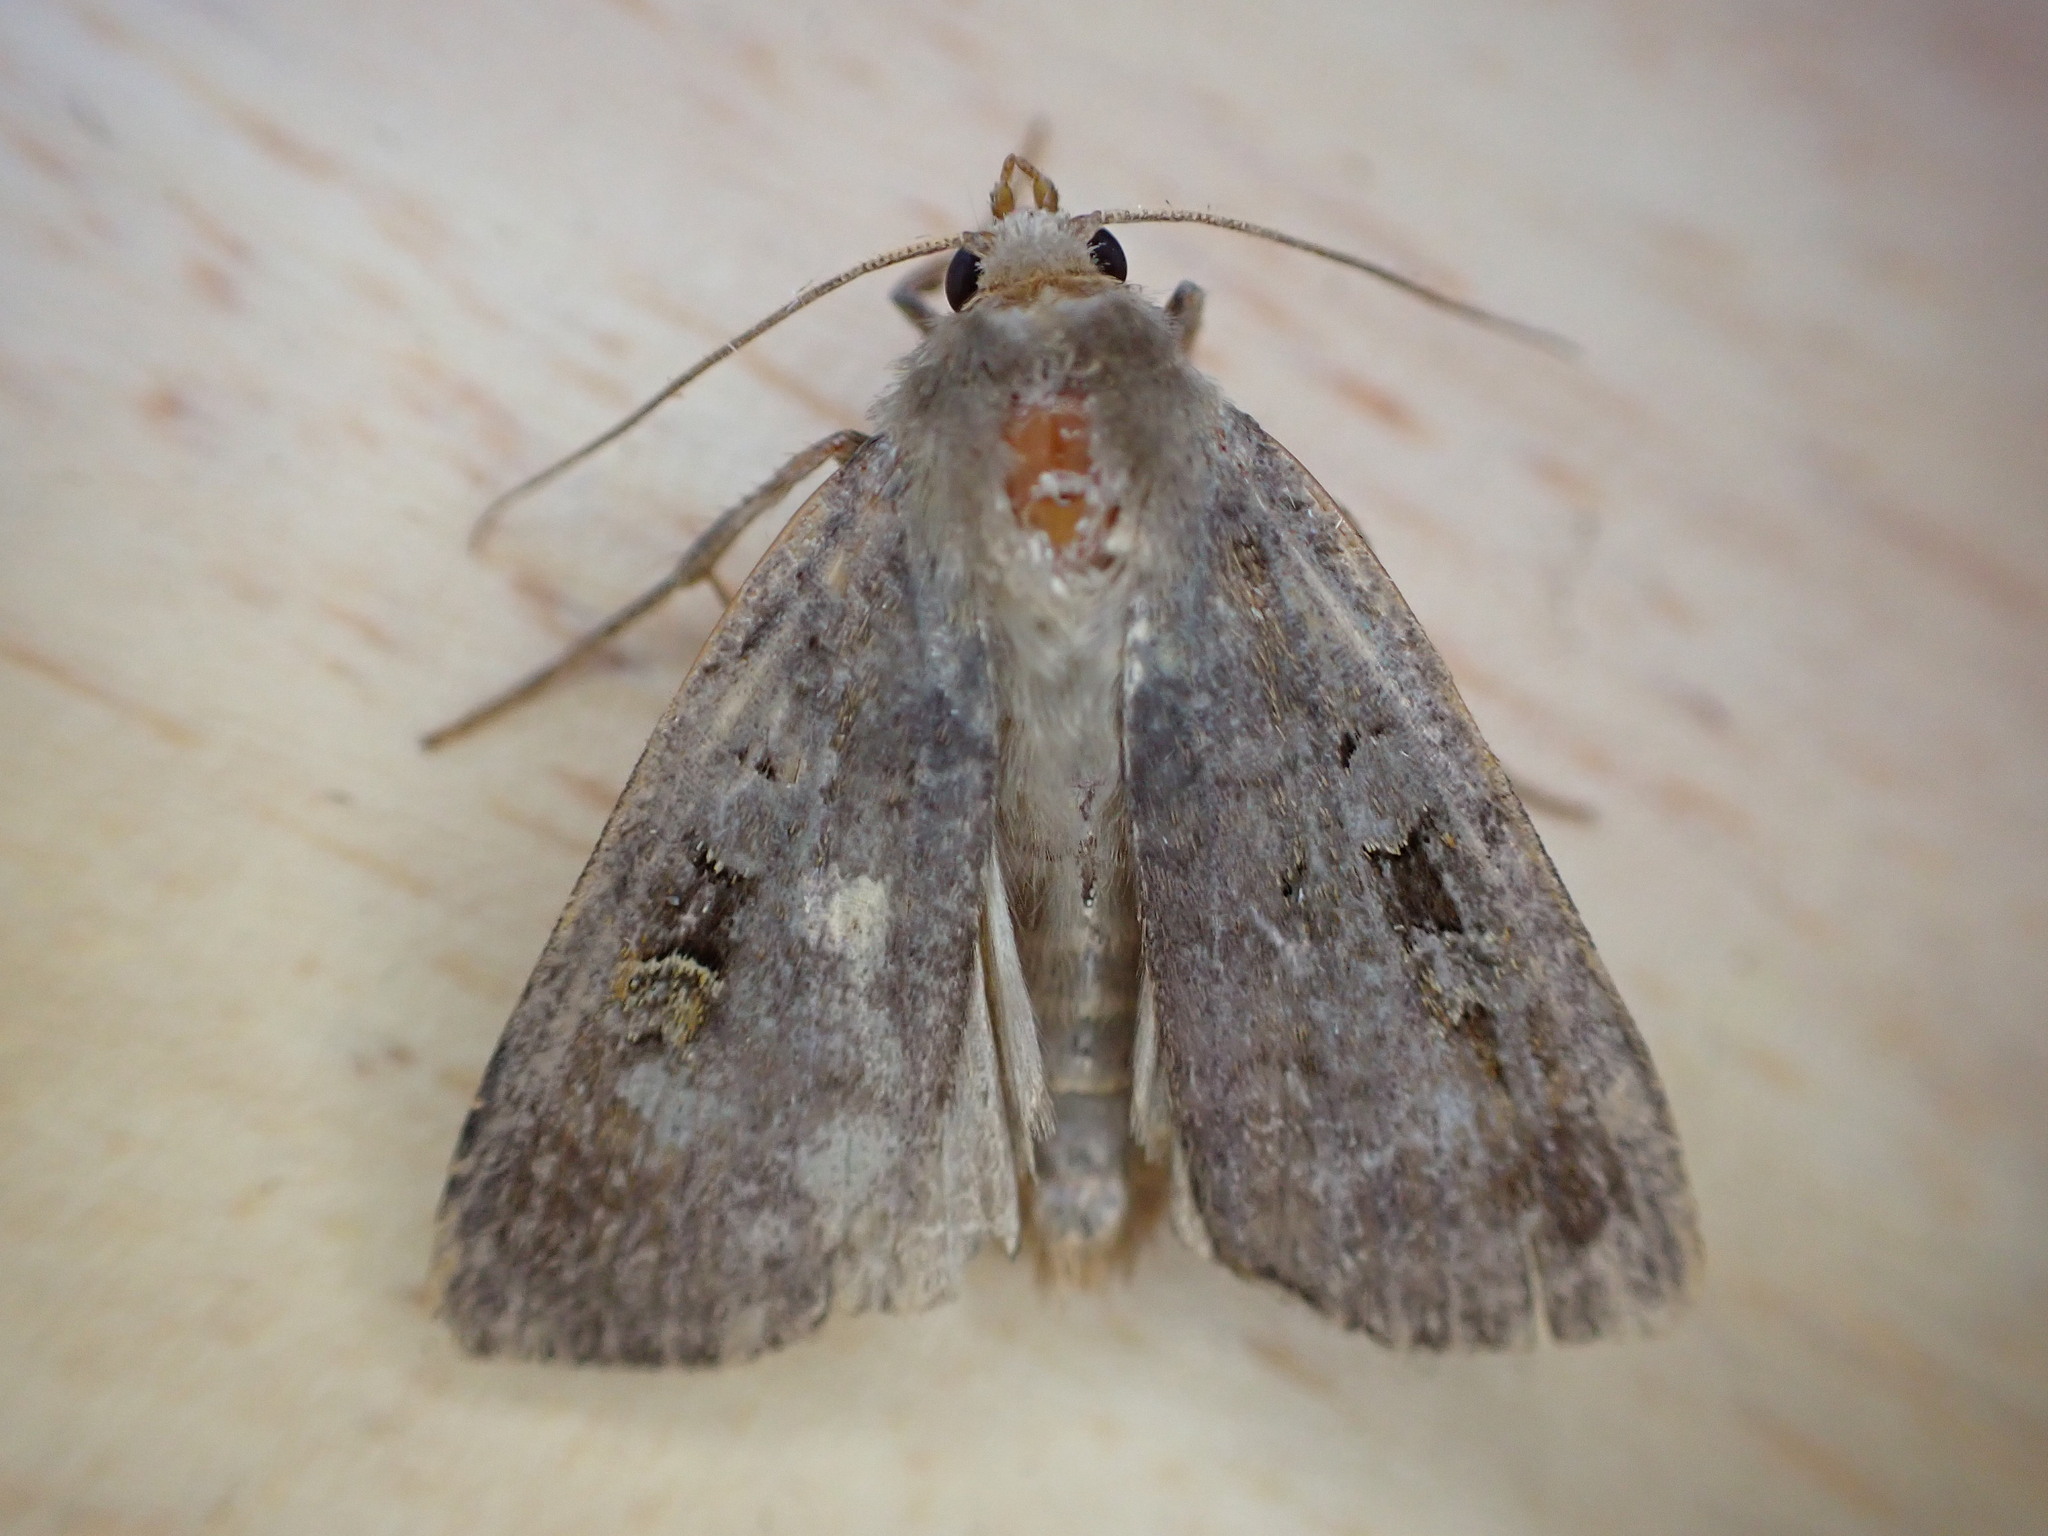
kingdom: Animalia
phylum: Arthropoda
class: Insecta
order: Lepidoptera
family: Noctuidae
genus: Diarsia
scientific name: Diarsia brunnea
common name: Purple clay
